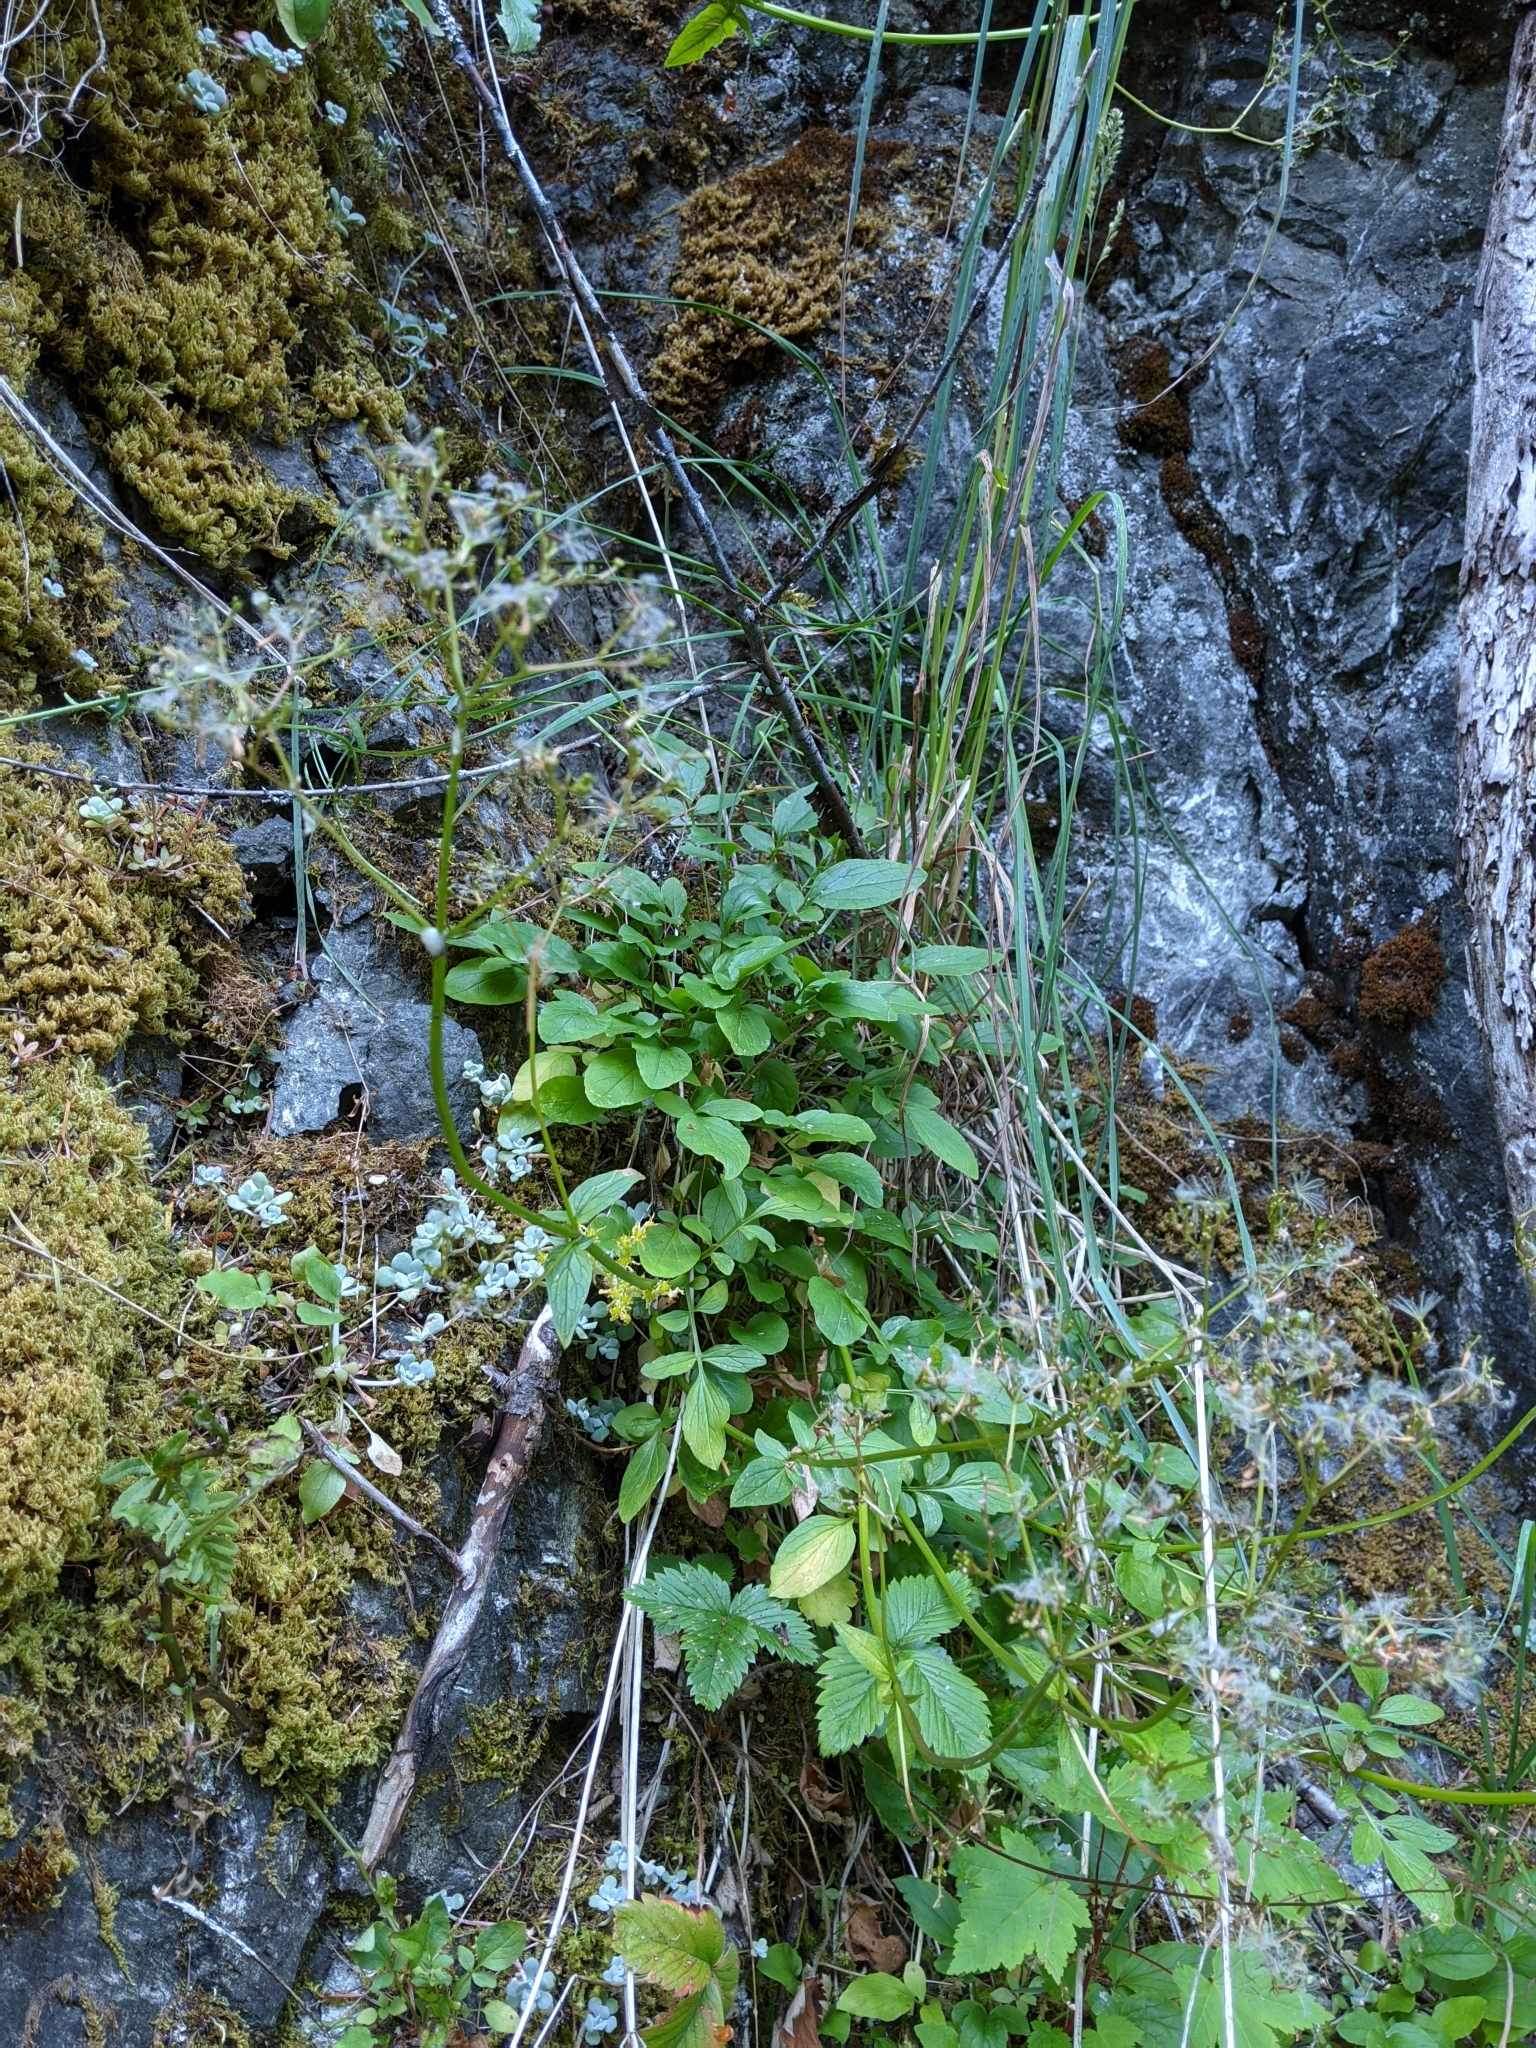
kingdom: Plantae
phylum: Tracheophyta
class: Magnoliopsida
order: Dipsacales
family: Caprifoliaceae
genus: Valeriana
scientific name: Valeriana scouleri
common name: Scouler's valerian
